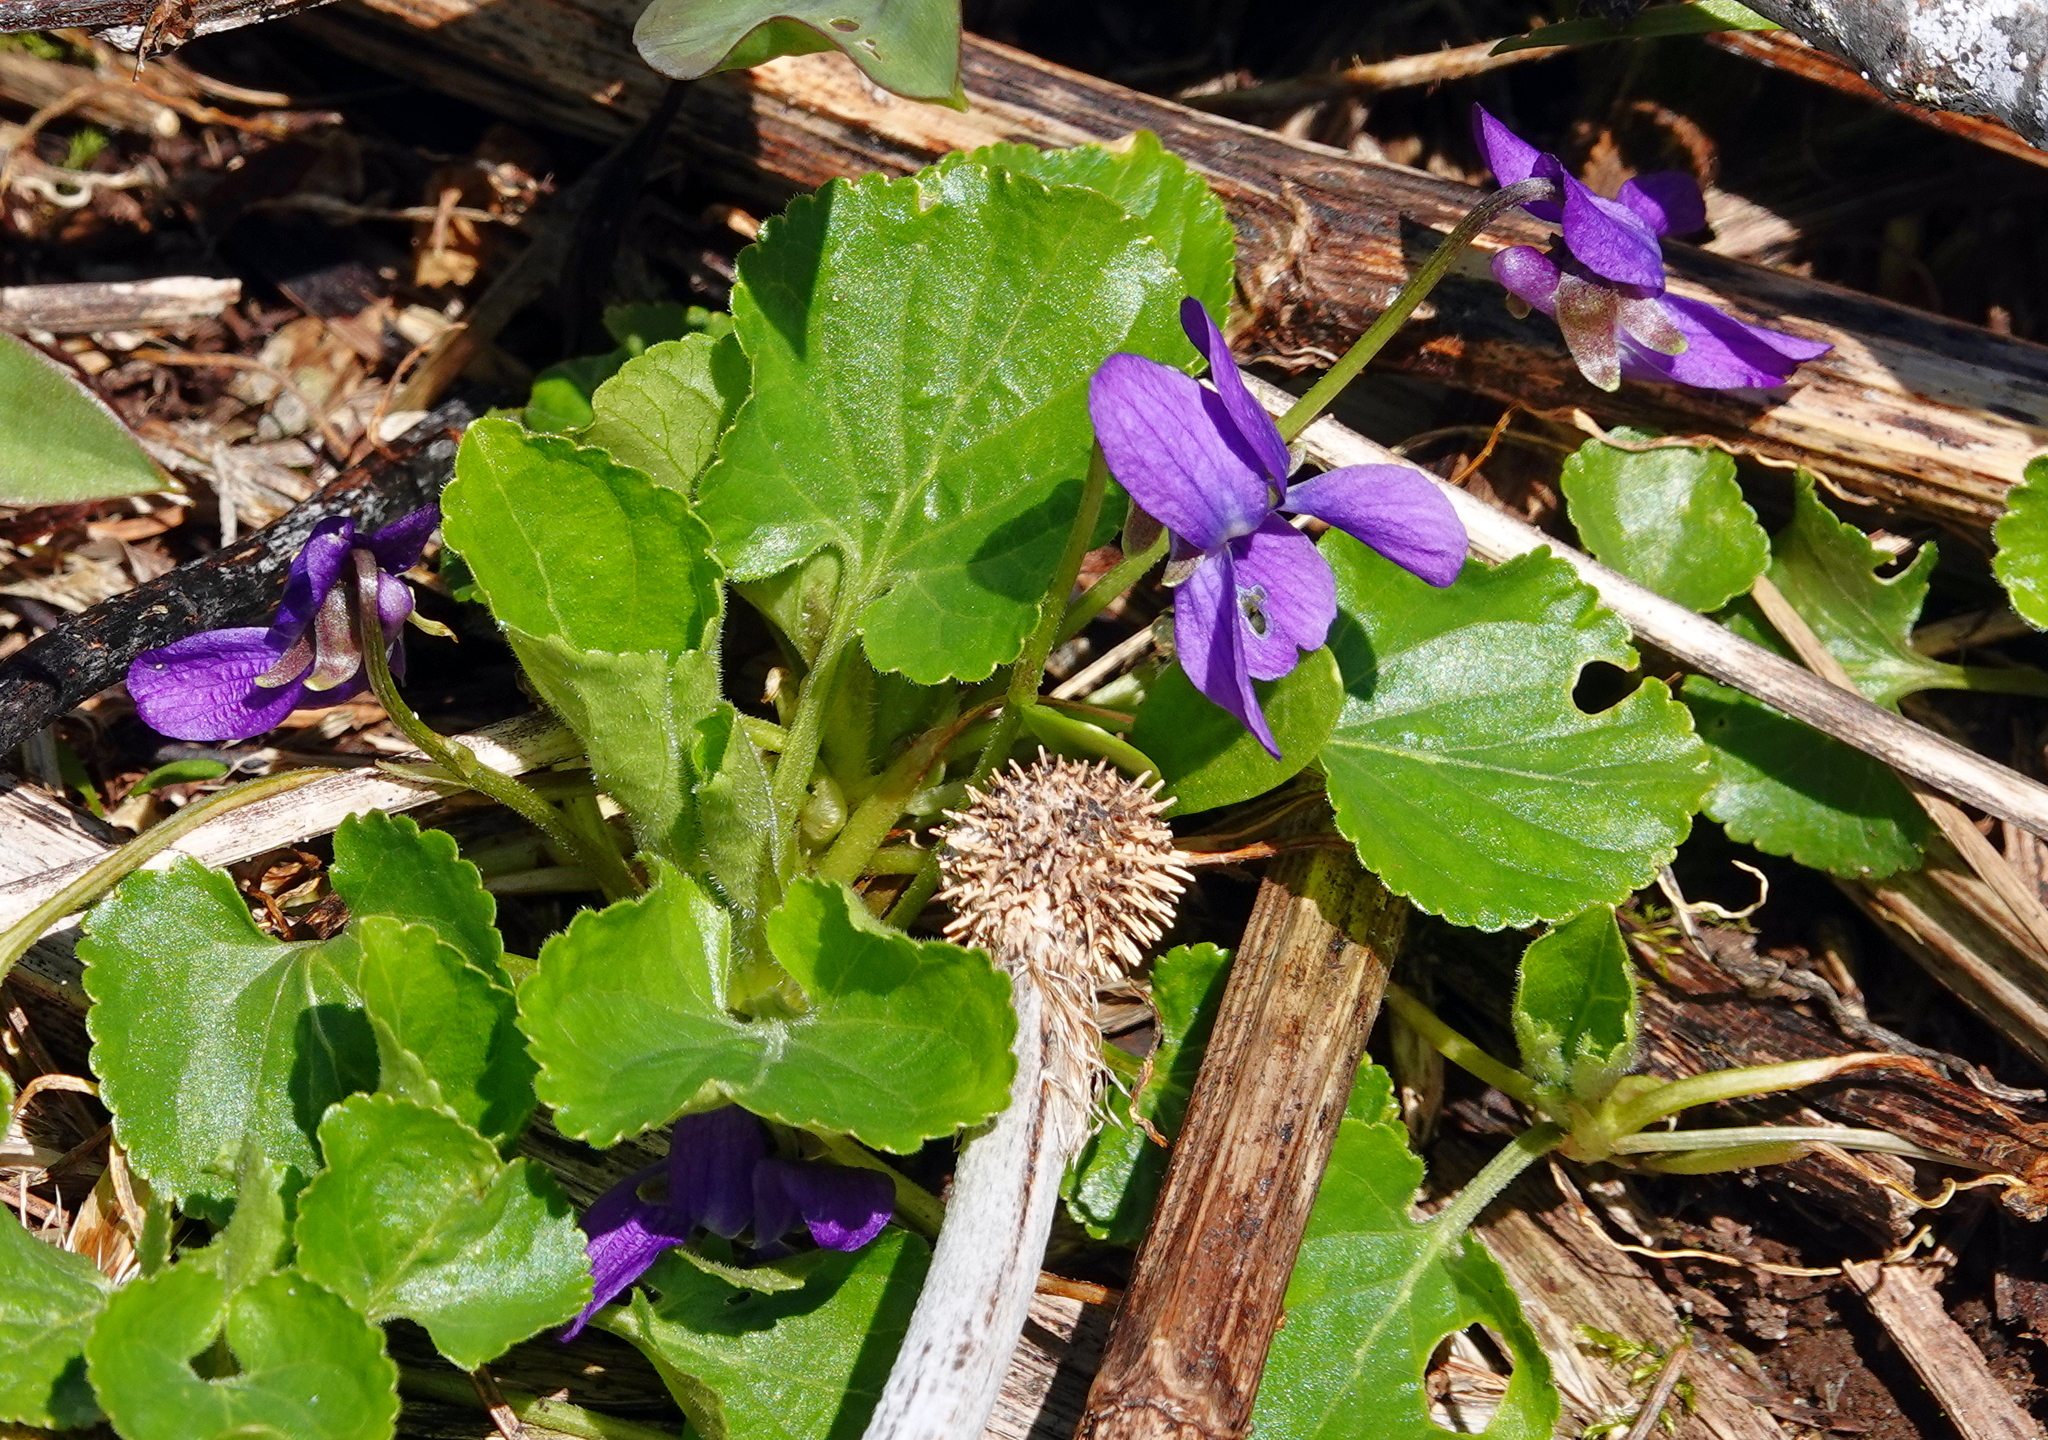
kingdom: Plantae
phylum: Tracheophyta
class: Magnoliopsida
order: Malpighiales
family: Violaceae
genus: Viola
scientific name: Viola odorata
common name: Sweet violet
